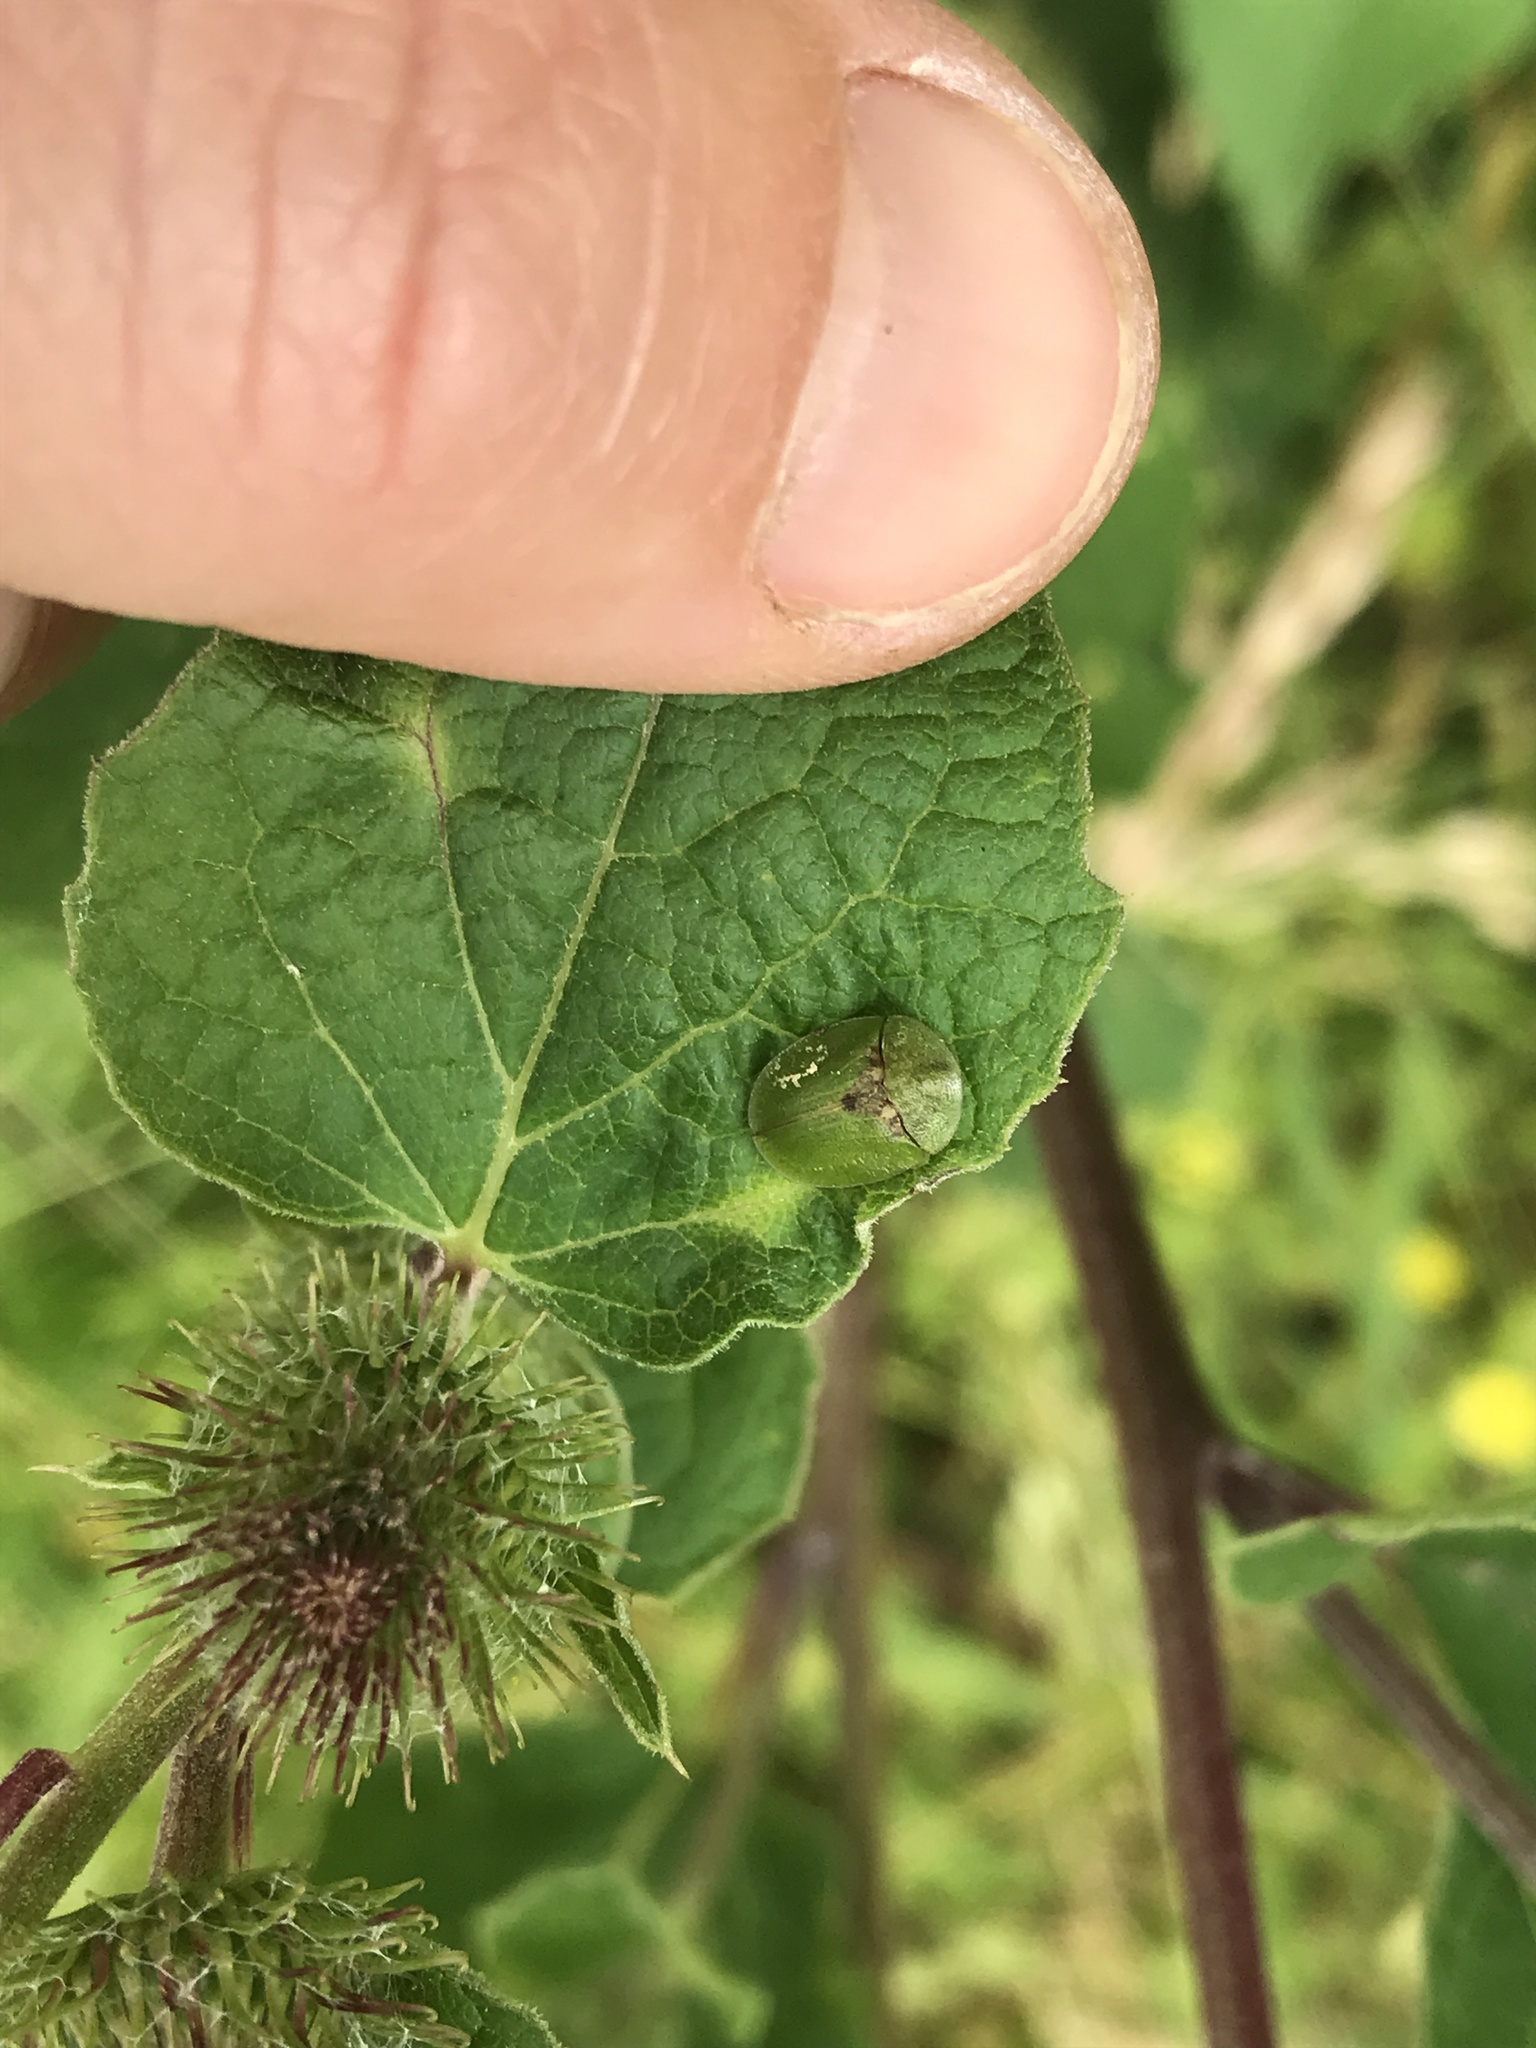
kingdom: Animalia
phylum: Arthropoda
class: Insecta
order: Coleoptera
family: Chrysomelidae
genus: Cassida
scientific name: Cassida rubiginosa
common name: Thistle tortoise beetle
